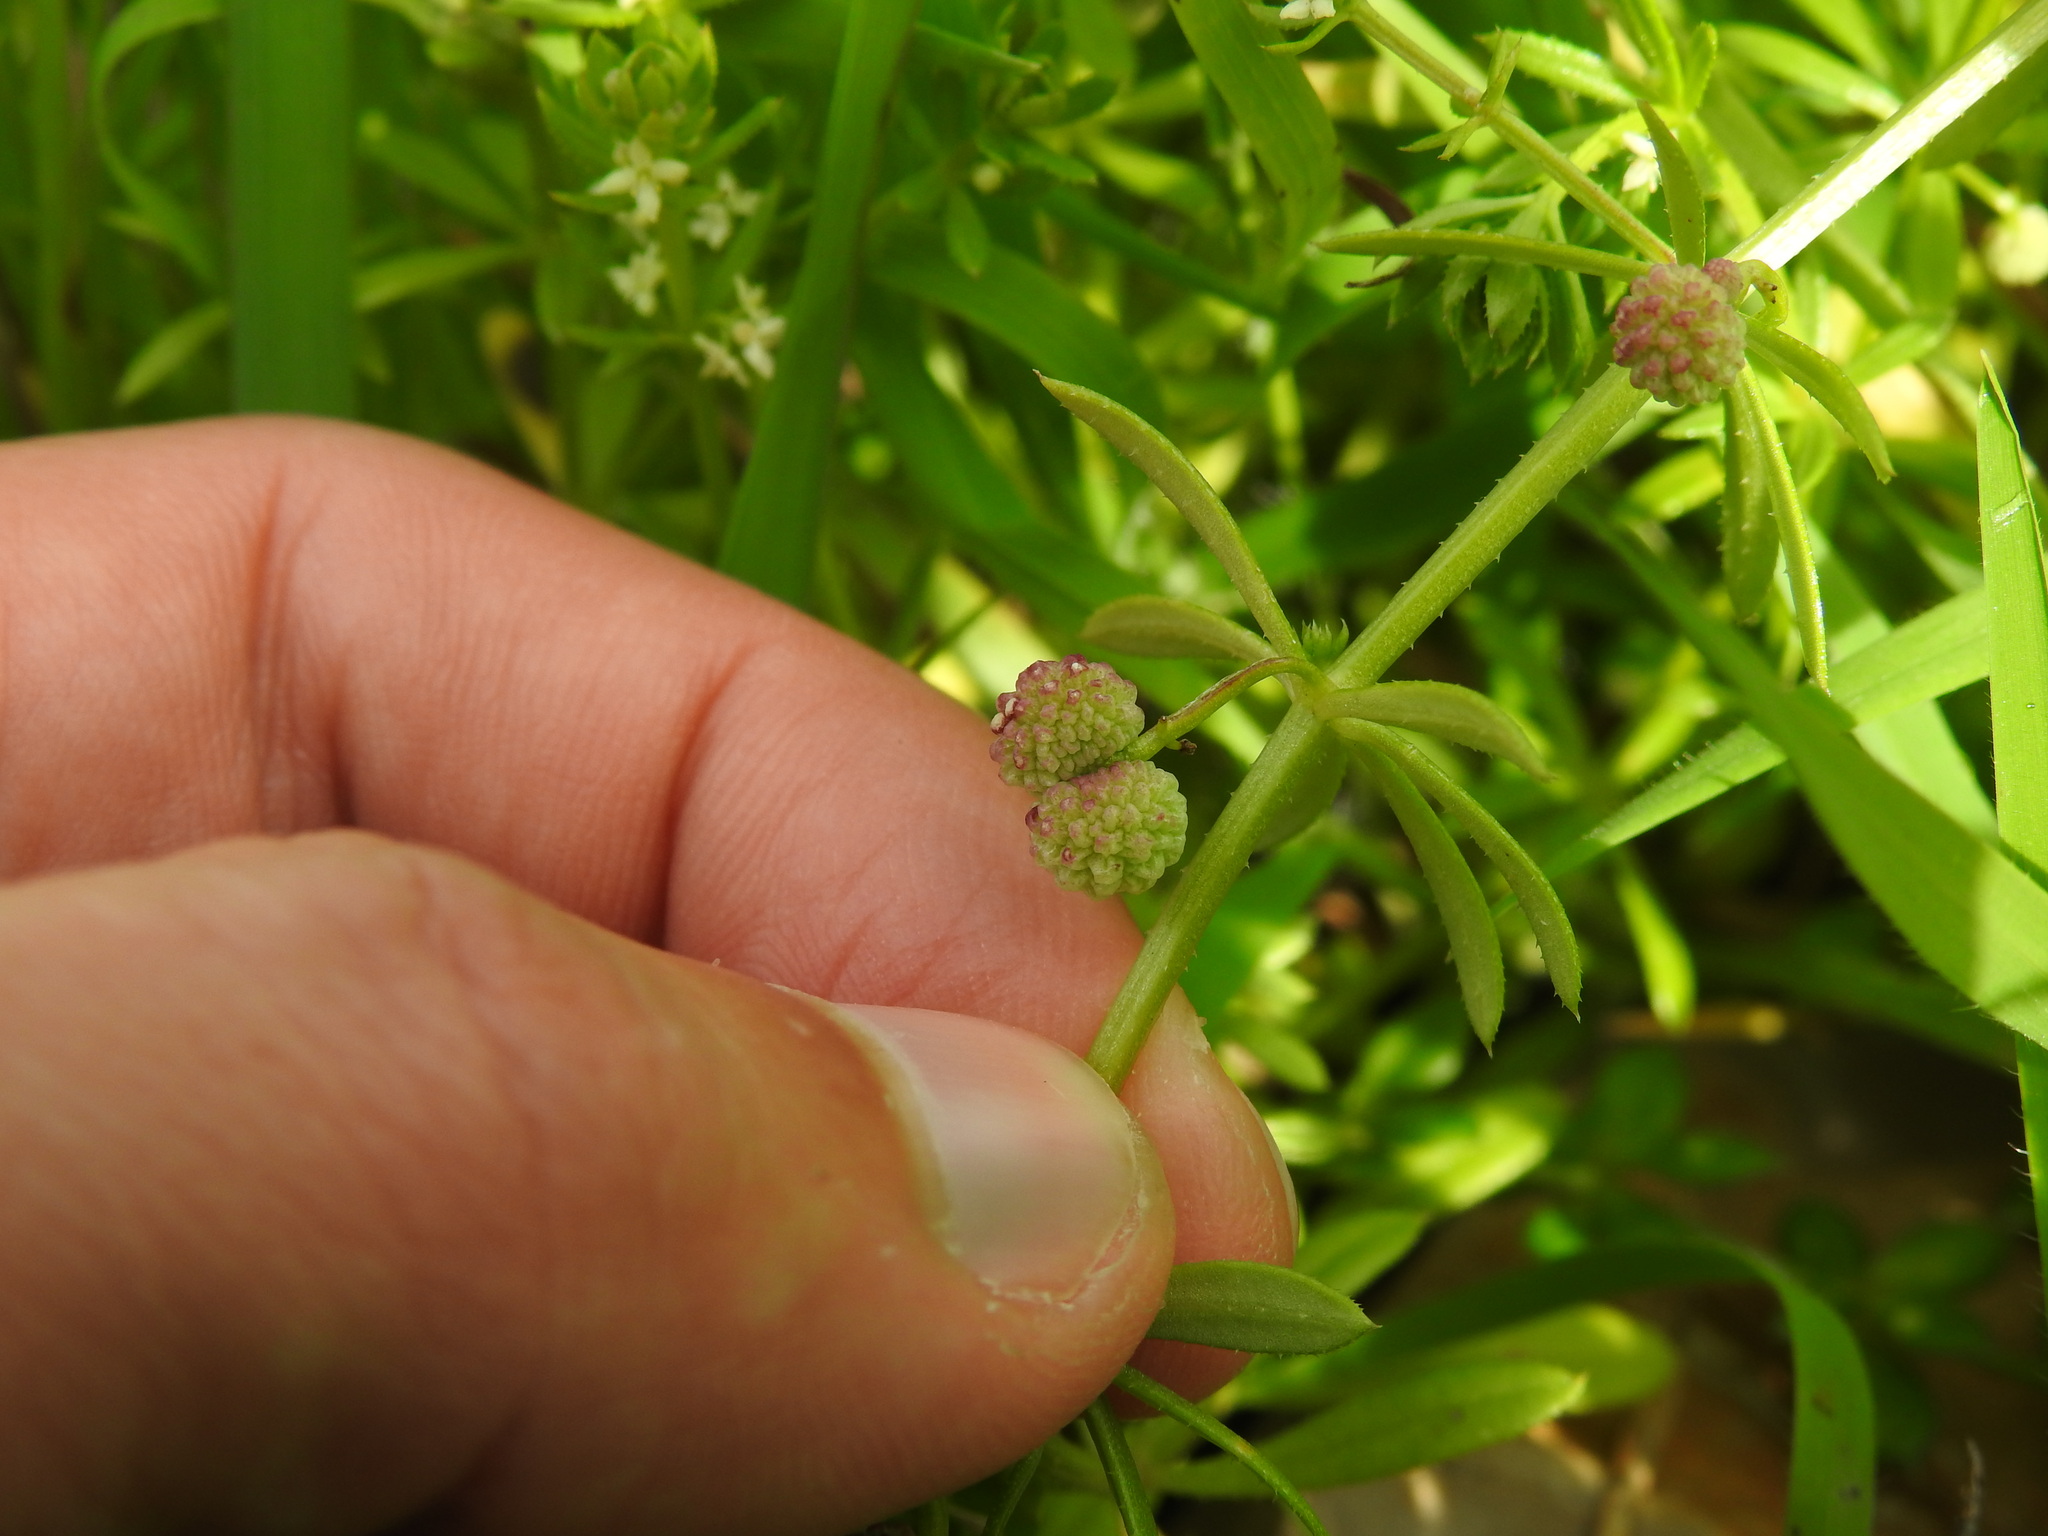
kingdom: Plantae
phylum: Tracheophyta
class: Magnoliopsida
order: Gentianales
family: Rubiaceae
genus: Galium
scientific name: Galium verrucosum
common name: Warty bedstraw
